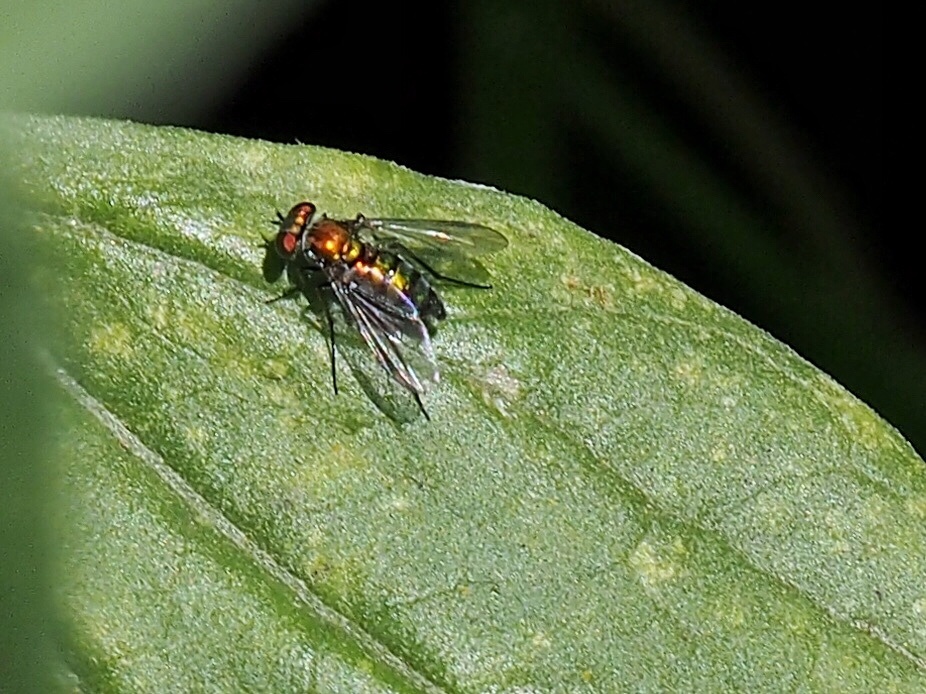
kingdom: Animalia
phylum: Arthropoda
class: Insecta
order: Diptera
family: Dolichopodidae
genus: Condylostylus
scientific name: Condylostylus longicornis
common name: Long-legged fly
